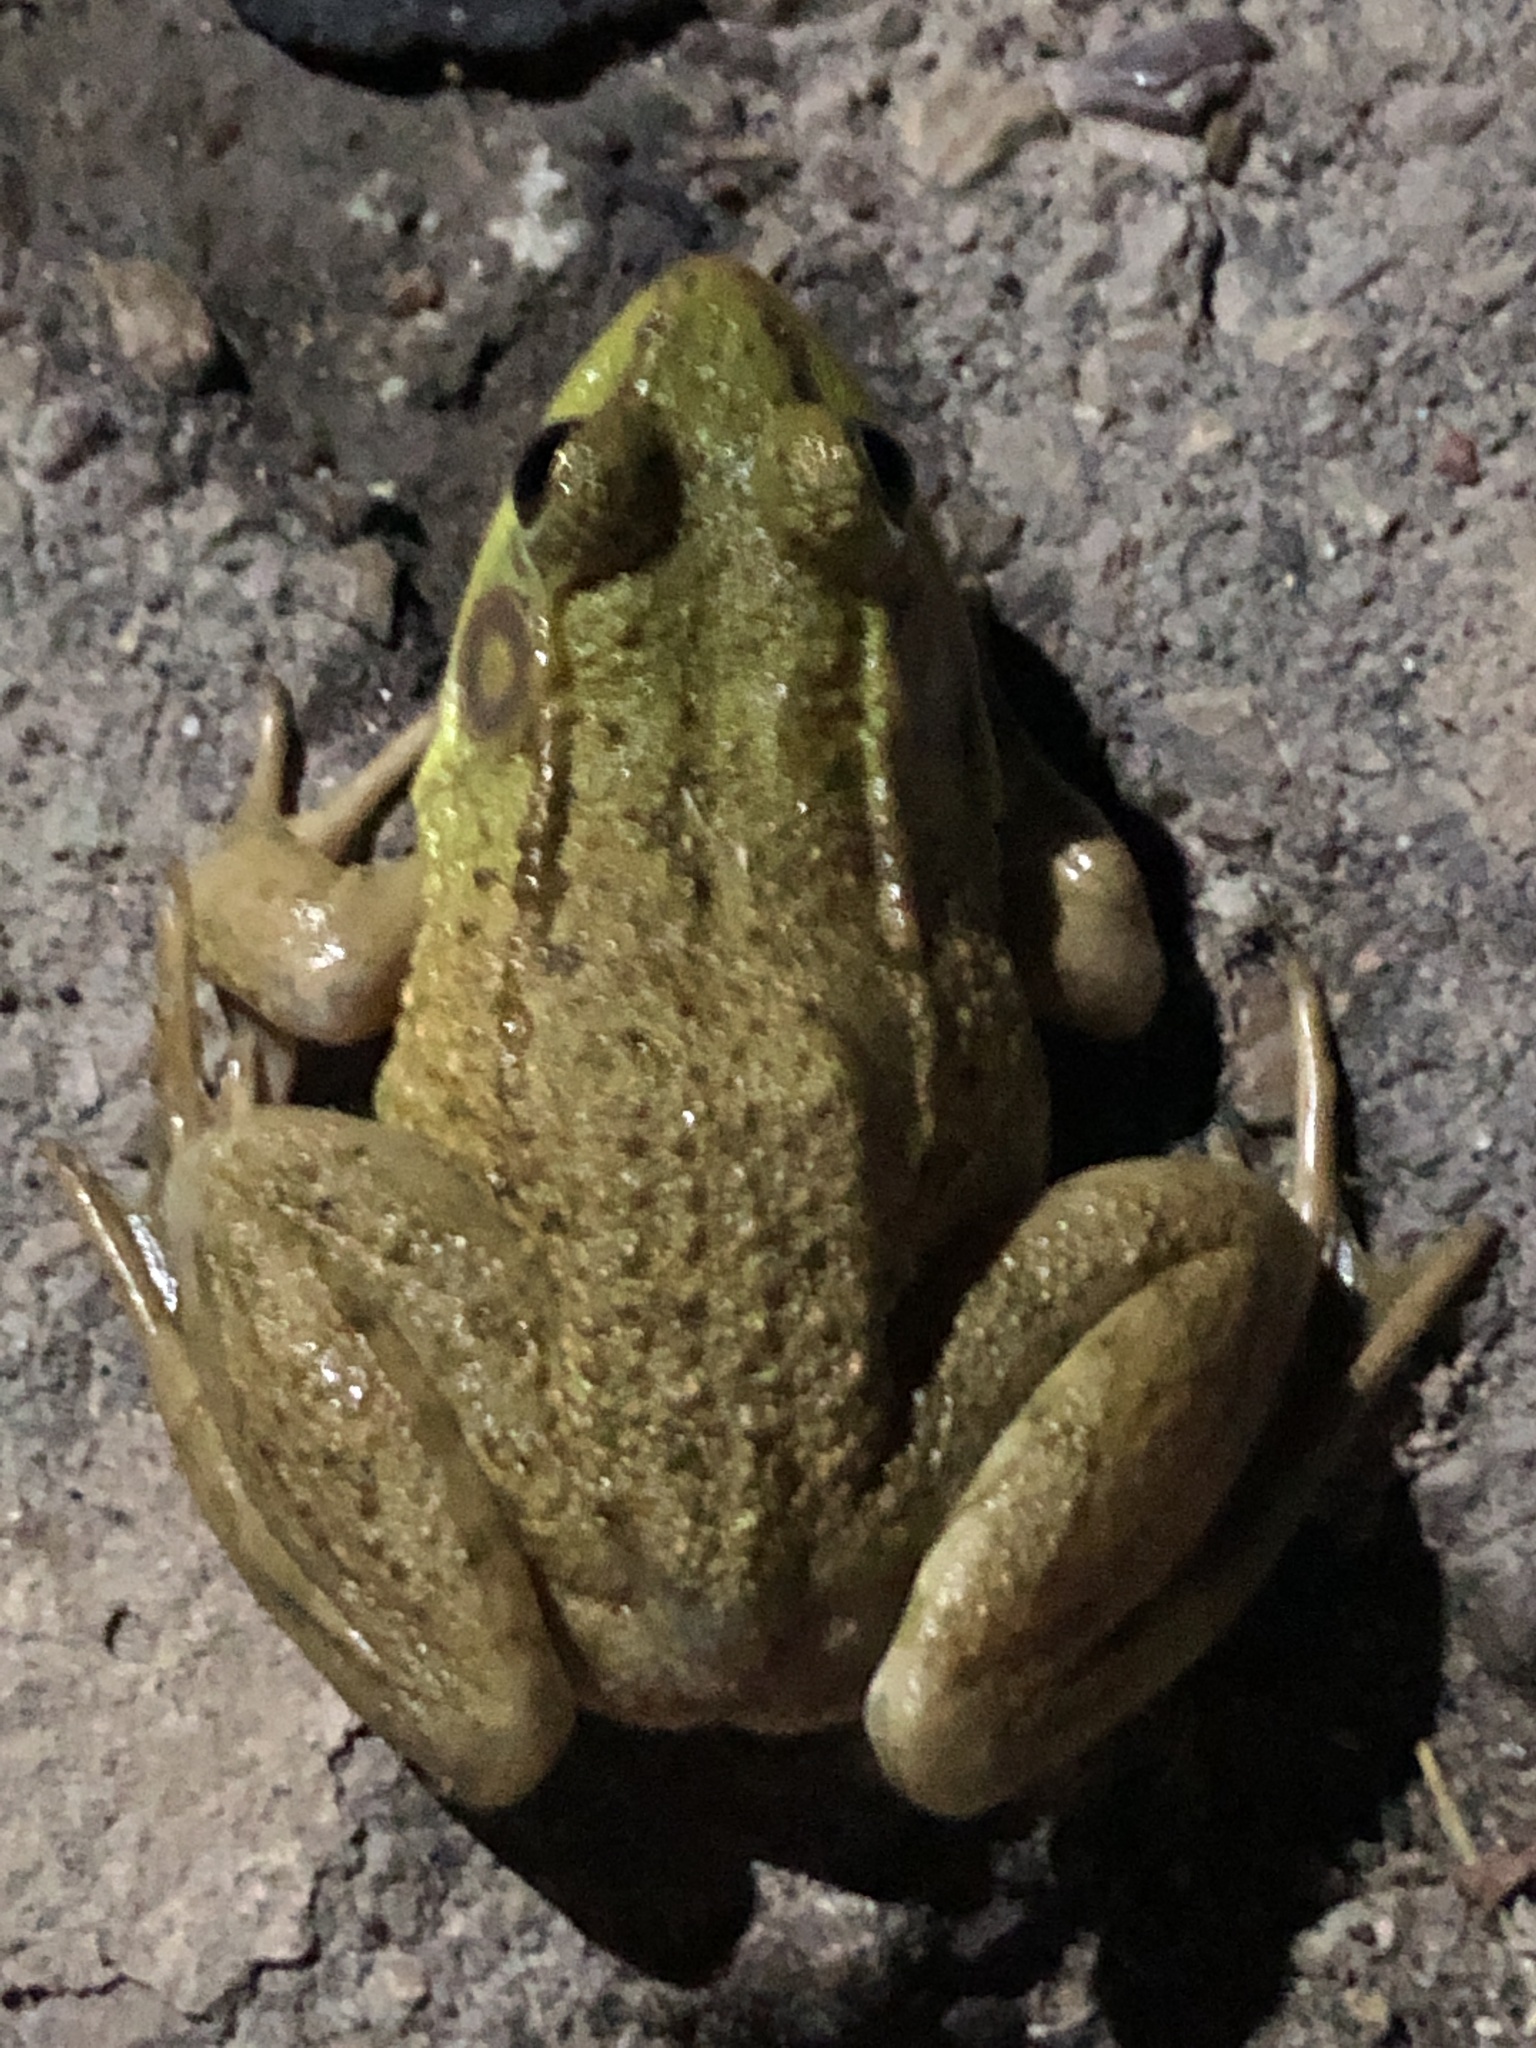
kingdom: Animalia
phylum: Chordata
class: Amphibia
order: Anura
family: Ranidae
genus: Lithobates
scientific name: Lithobates clamitans
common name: Green frog
